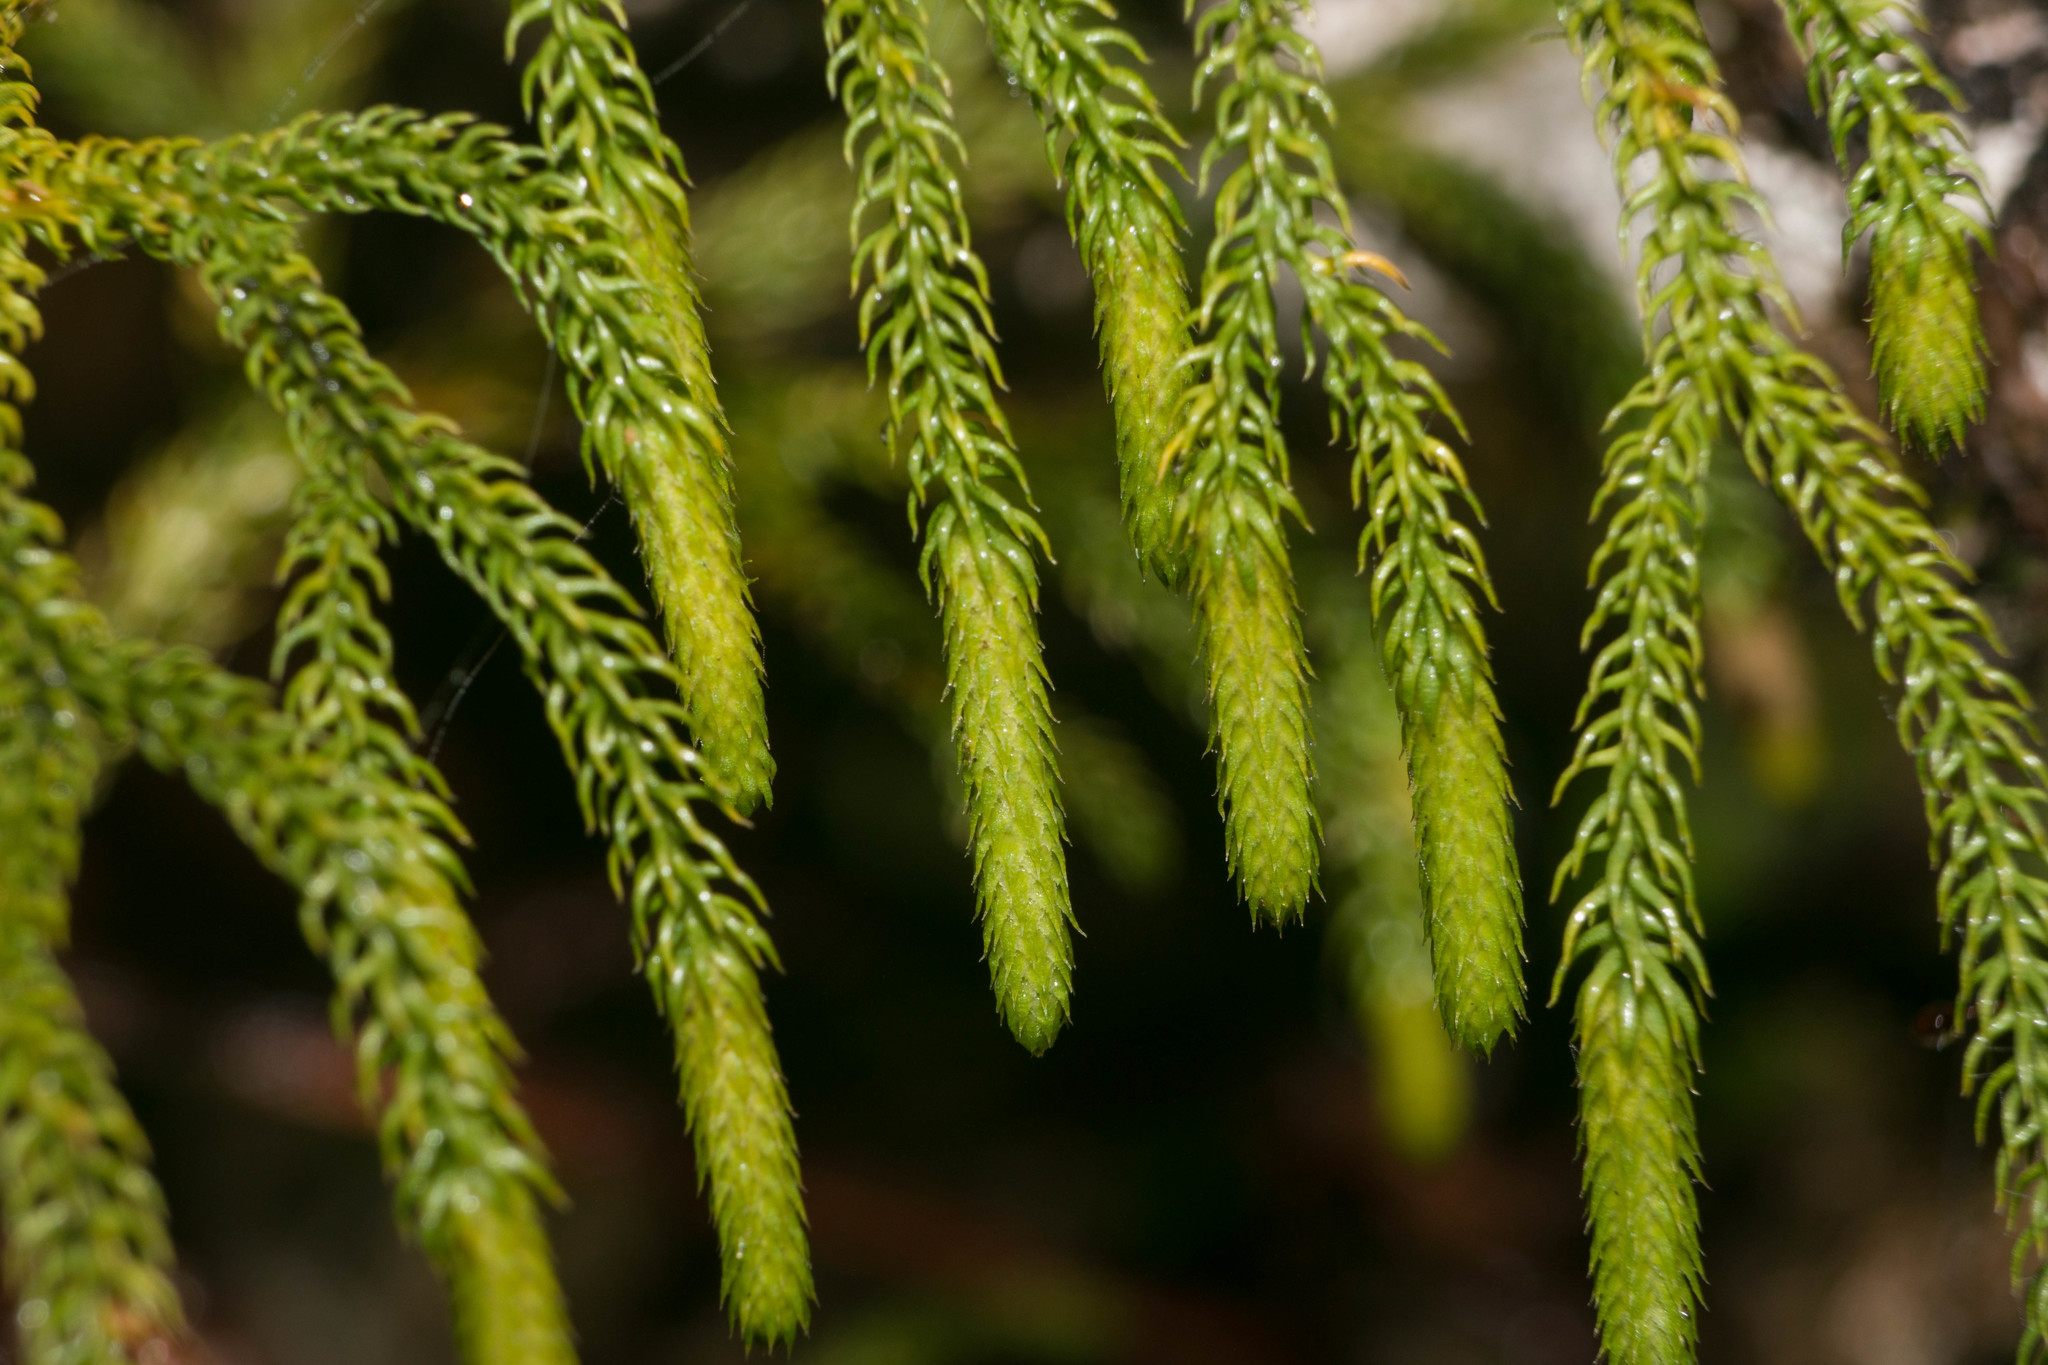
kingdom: Plantae
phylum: Tracheophyta
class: Lycopodiopsida
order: Lycopodiales
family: Lycopodiaceae
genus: Palhinhaea
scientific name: Palhinhaea cernua
